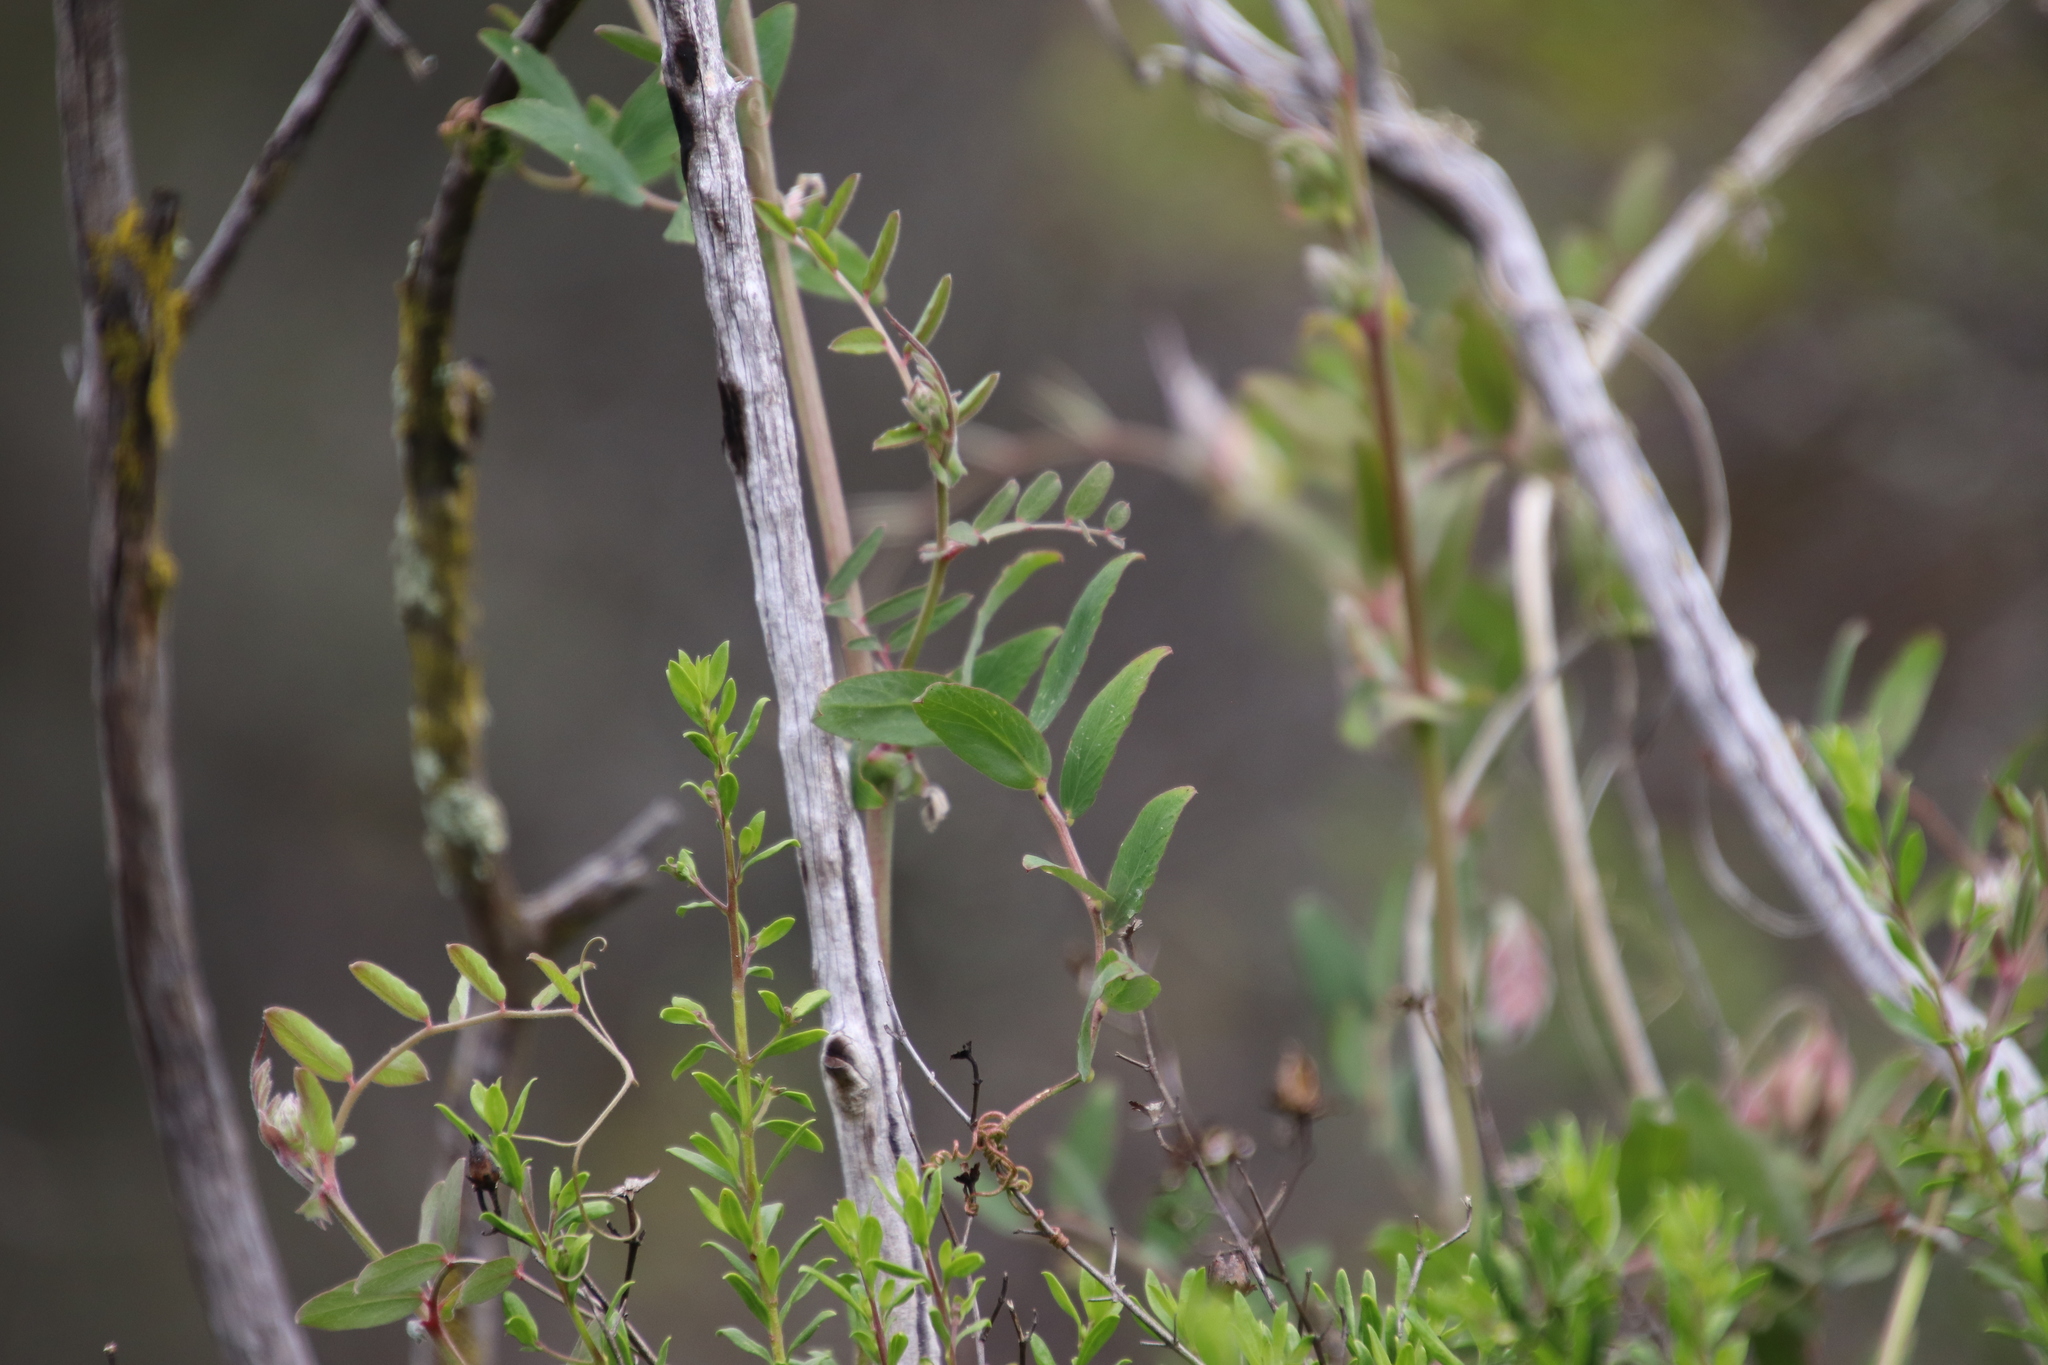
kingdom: Plantae
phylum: Tracheophyta
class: Magnoliopsida
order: Fabales
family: Fabaceae
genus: Lathyrus
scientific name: Lathyrus vestitus
